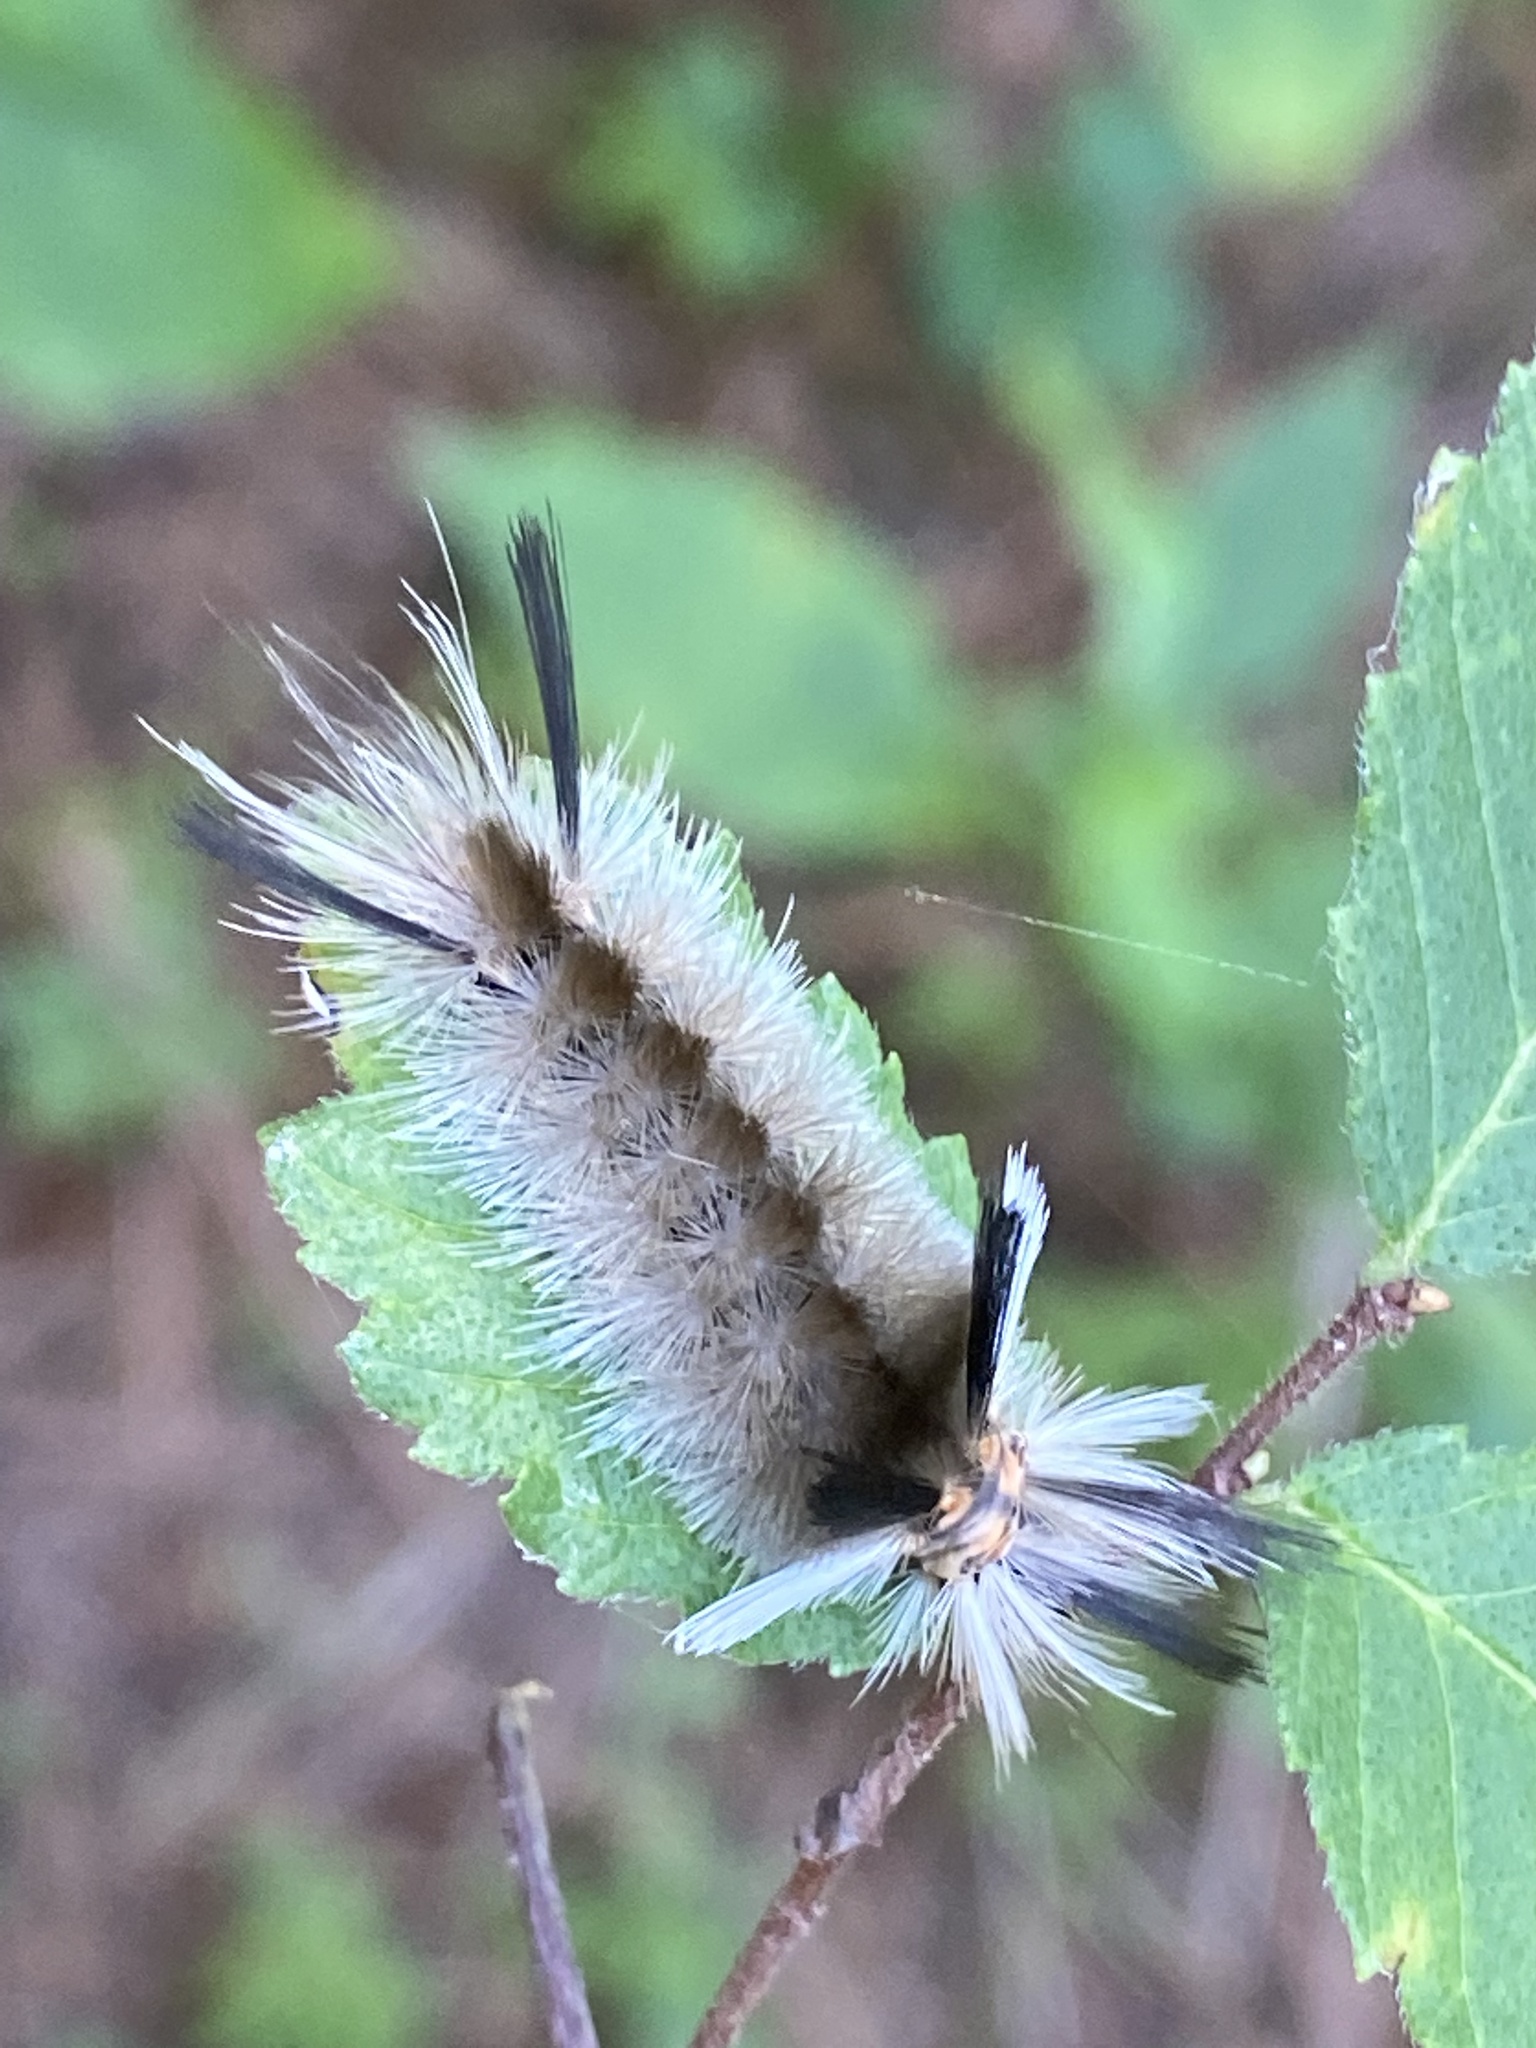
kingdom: Animalia
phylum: Arthropoda
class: Insecta
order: Lepidoptera
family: Erebidae
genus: Halysidota
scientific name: Halysidota tessellaris
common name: Banded tussock moth
